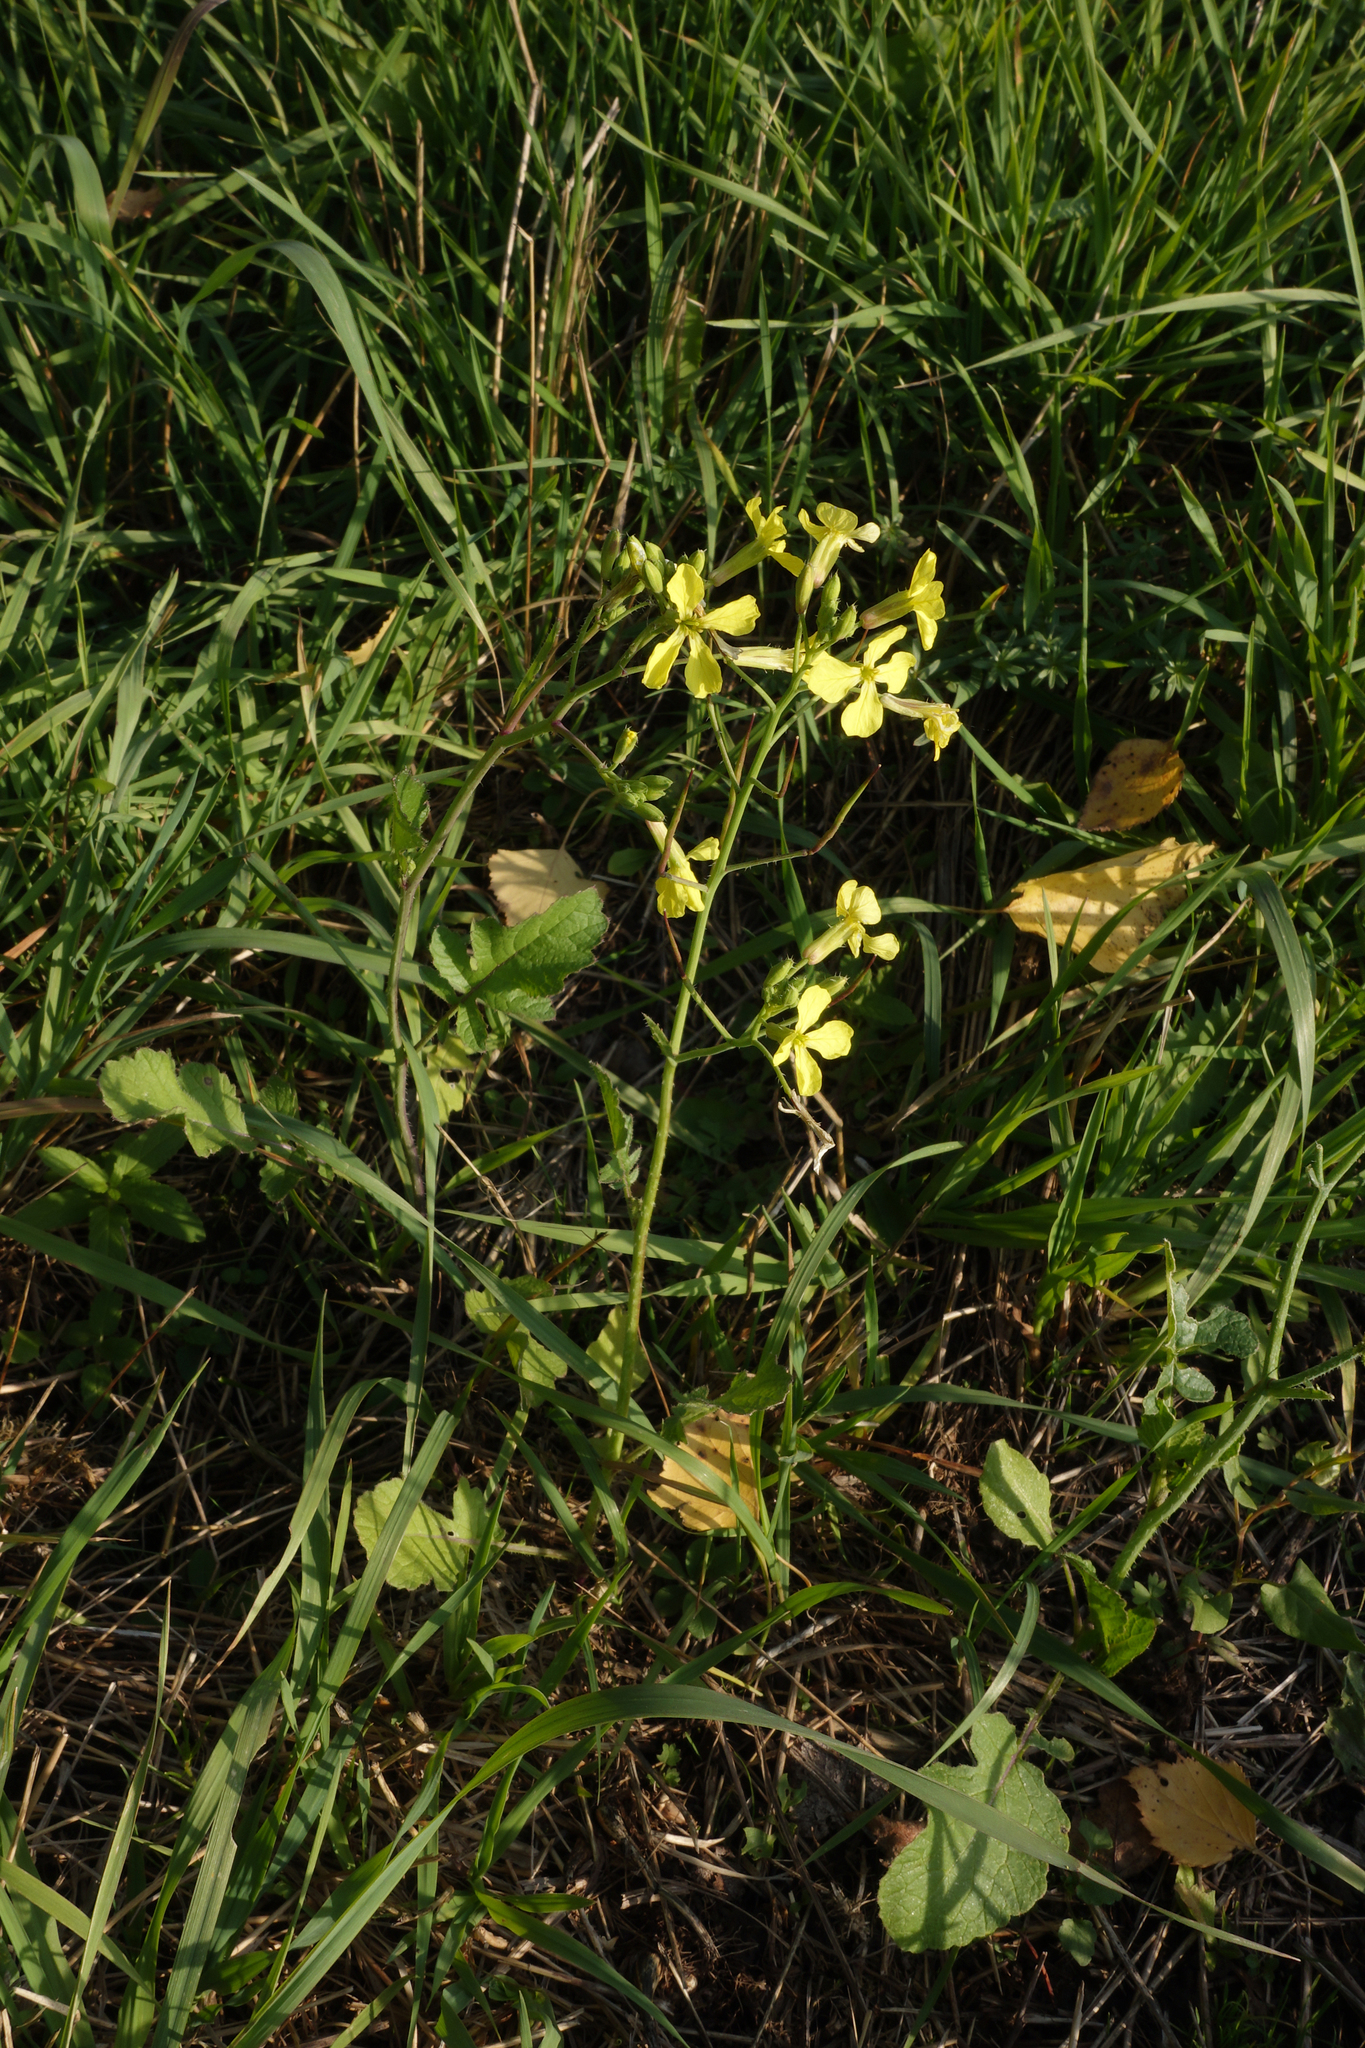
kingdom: Plantae
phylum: Tracheophyta
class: Magnoliopsida
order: Brassicales
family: Brassicaceae
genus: Raphanus
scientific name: Raphanus raphanistrum
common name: Wild radish
